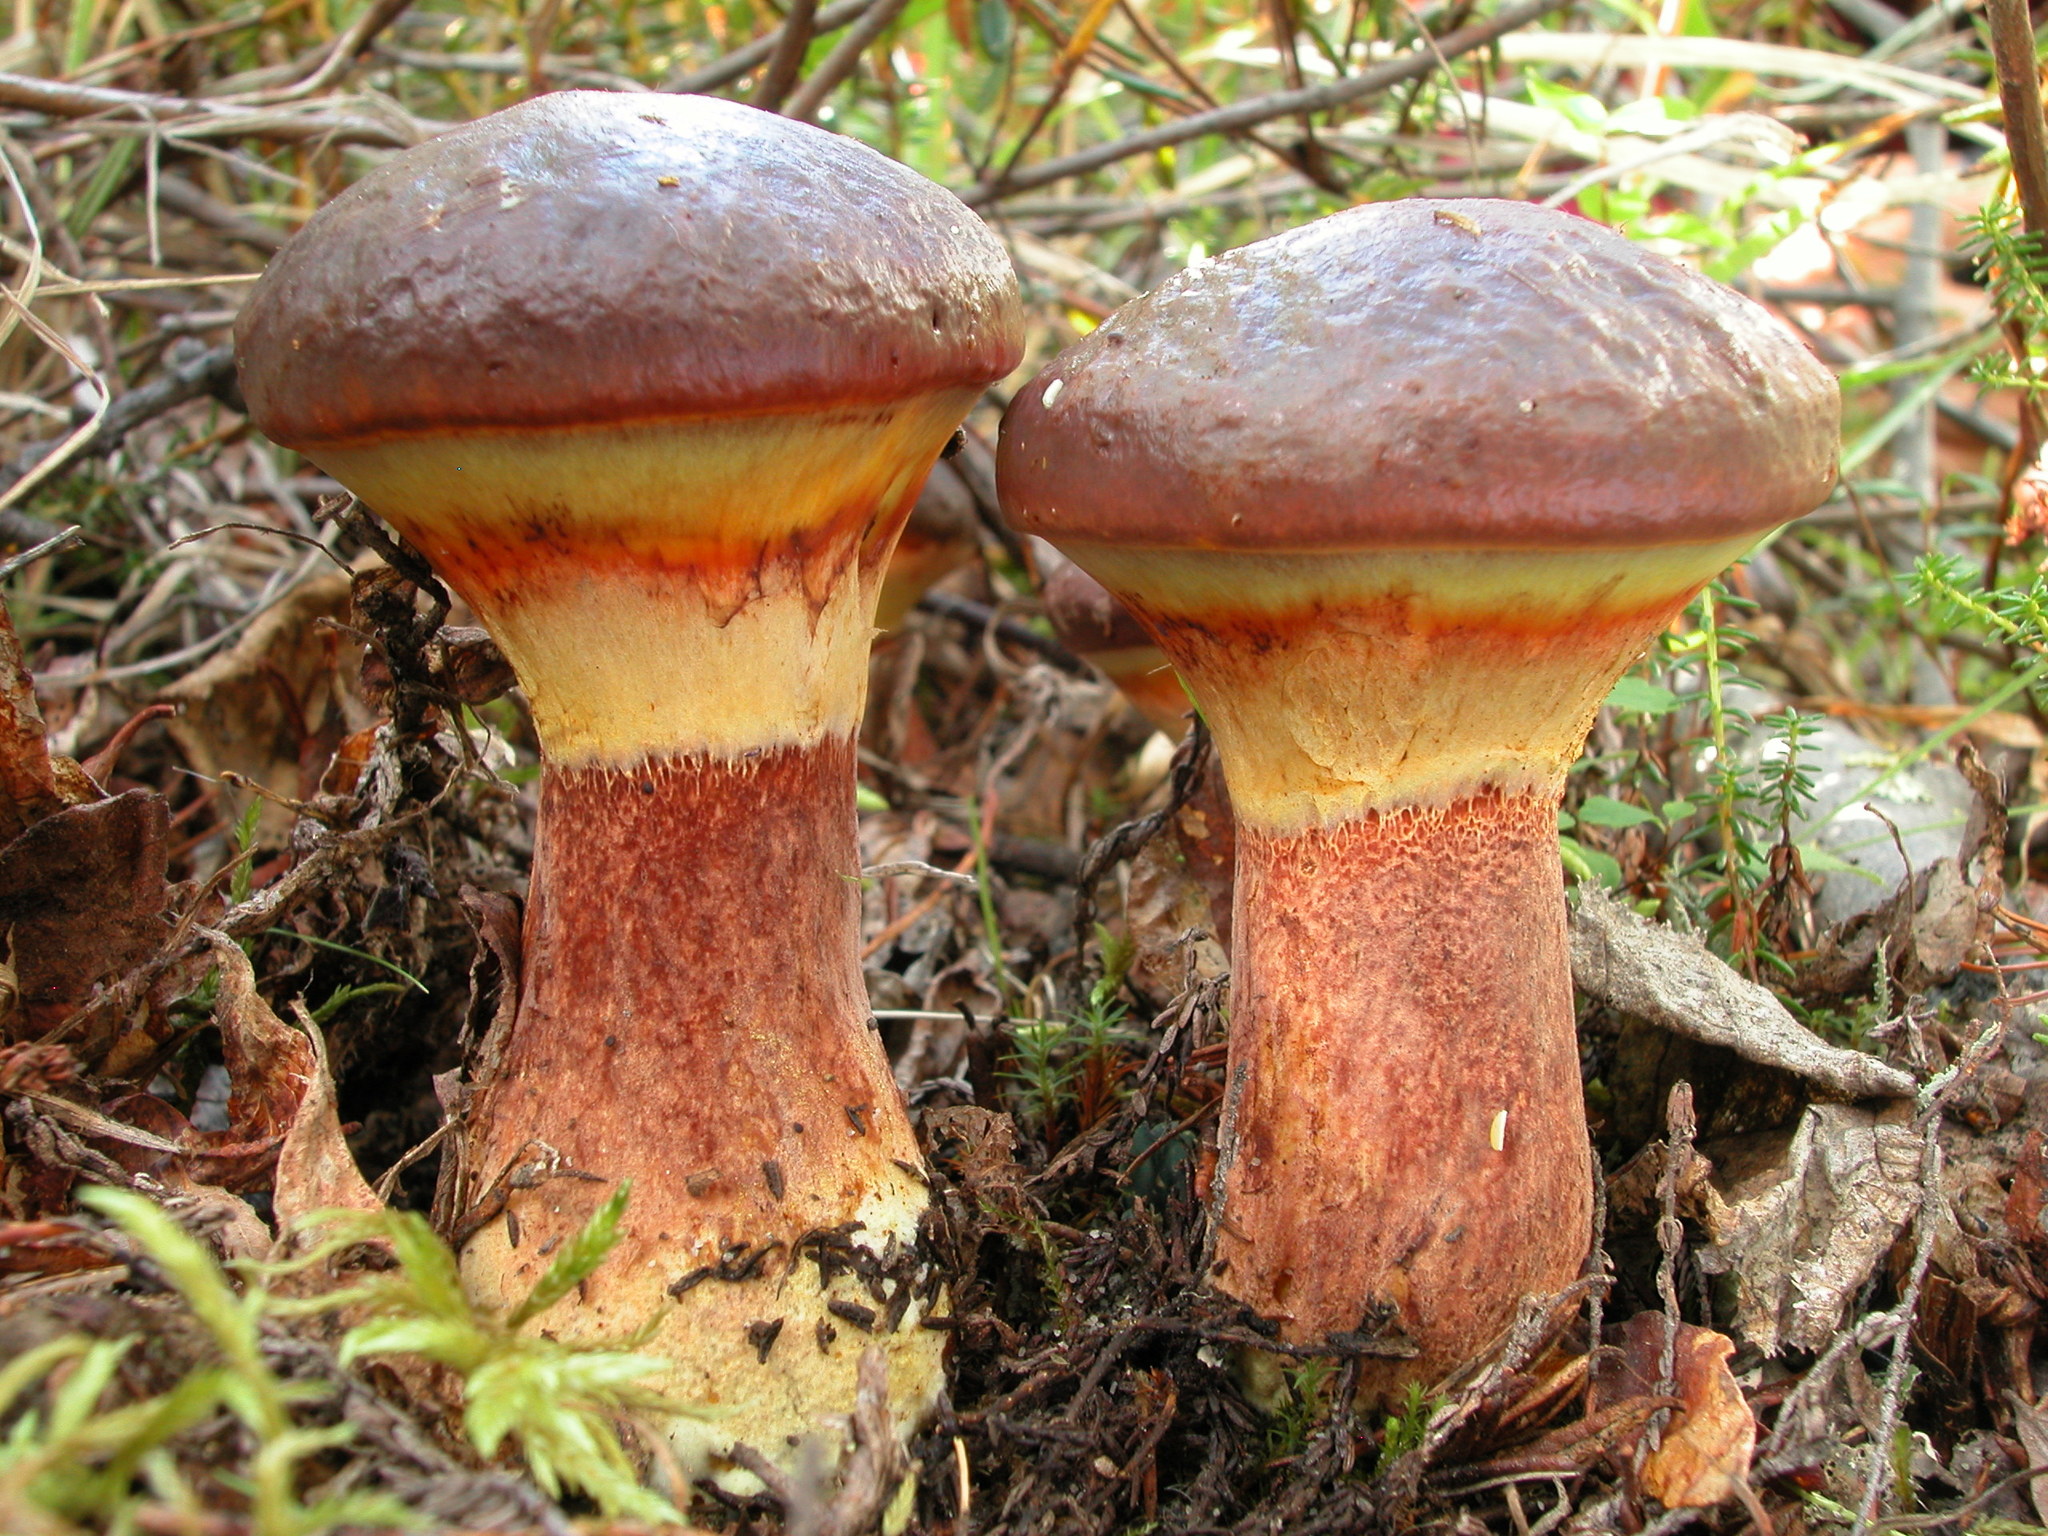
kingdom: Fungi
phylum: Basidiomycota
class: Agaricomycetes
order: Boletales
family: Suillaceae
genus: Suillus
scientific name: Suillus grevillei
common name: Larch bolete
